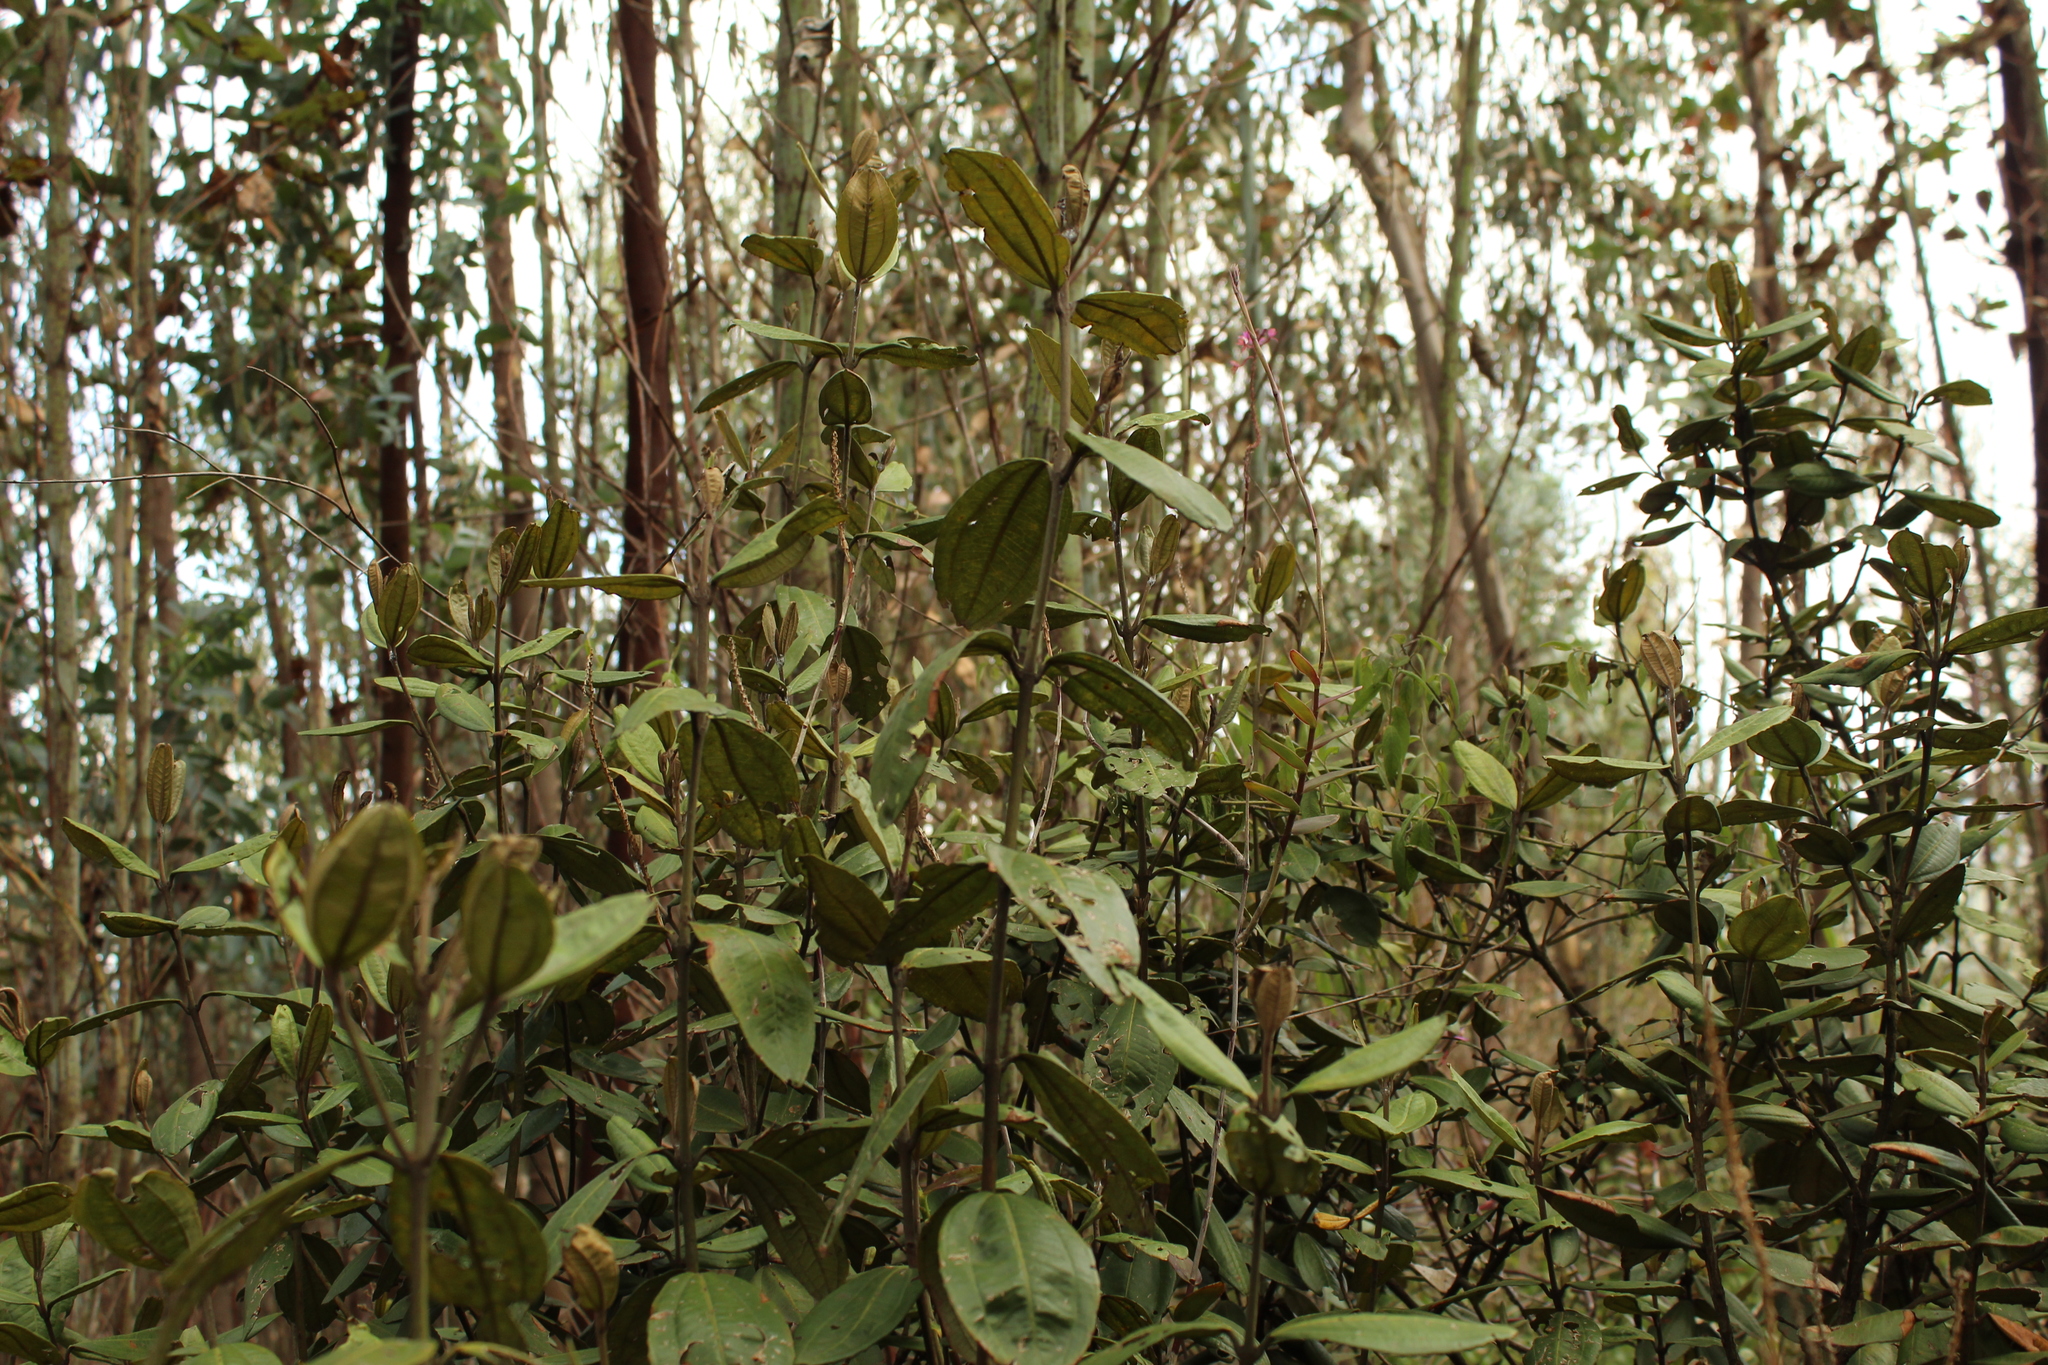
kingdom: Plantae
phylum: Tracheophyta
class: Magnoliopsida
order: Myrtales
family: Melastomataceae
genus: Miconia
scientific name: Miconia squamulosa
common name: Squamulose maya
